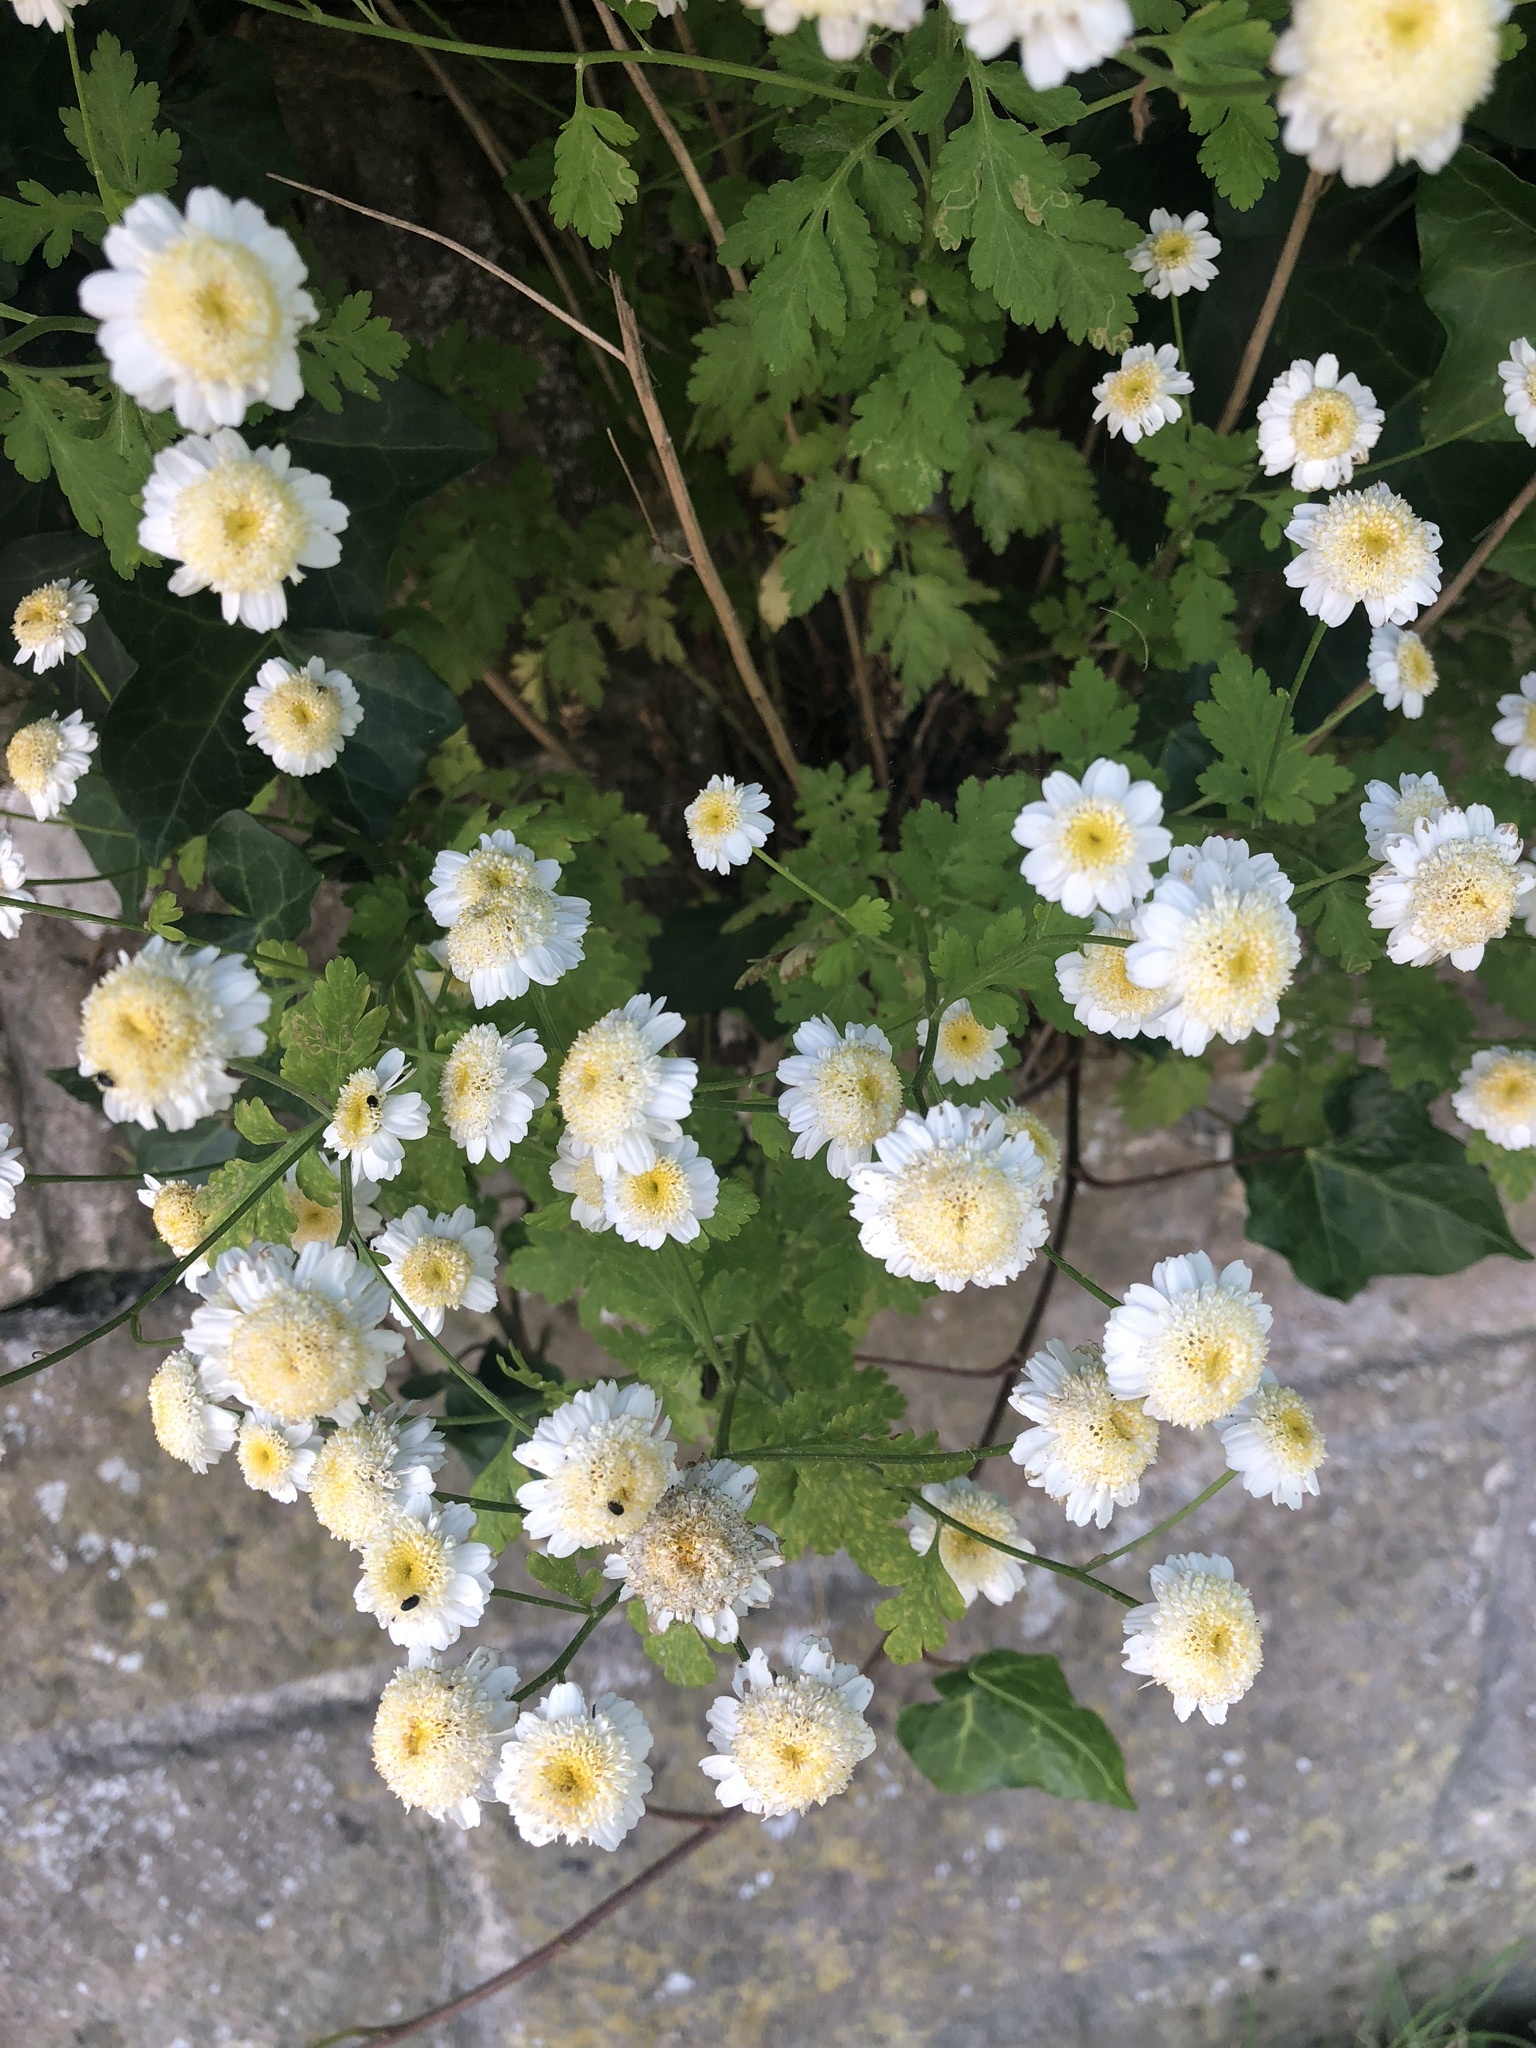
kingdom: Plantae
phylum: Tracheophyta
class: Magnoliopsida
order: Asterales
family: Asteraceae
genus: Tanacetum
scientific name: Tanacetum parthenium
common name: Feverfew
